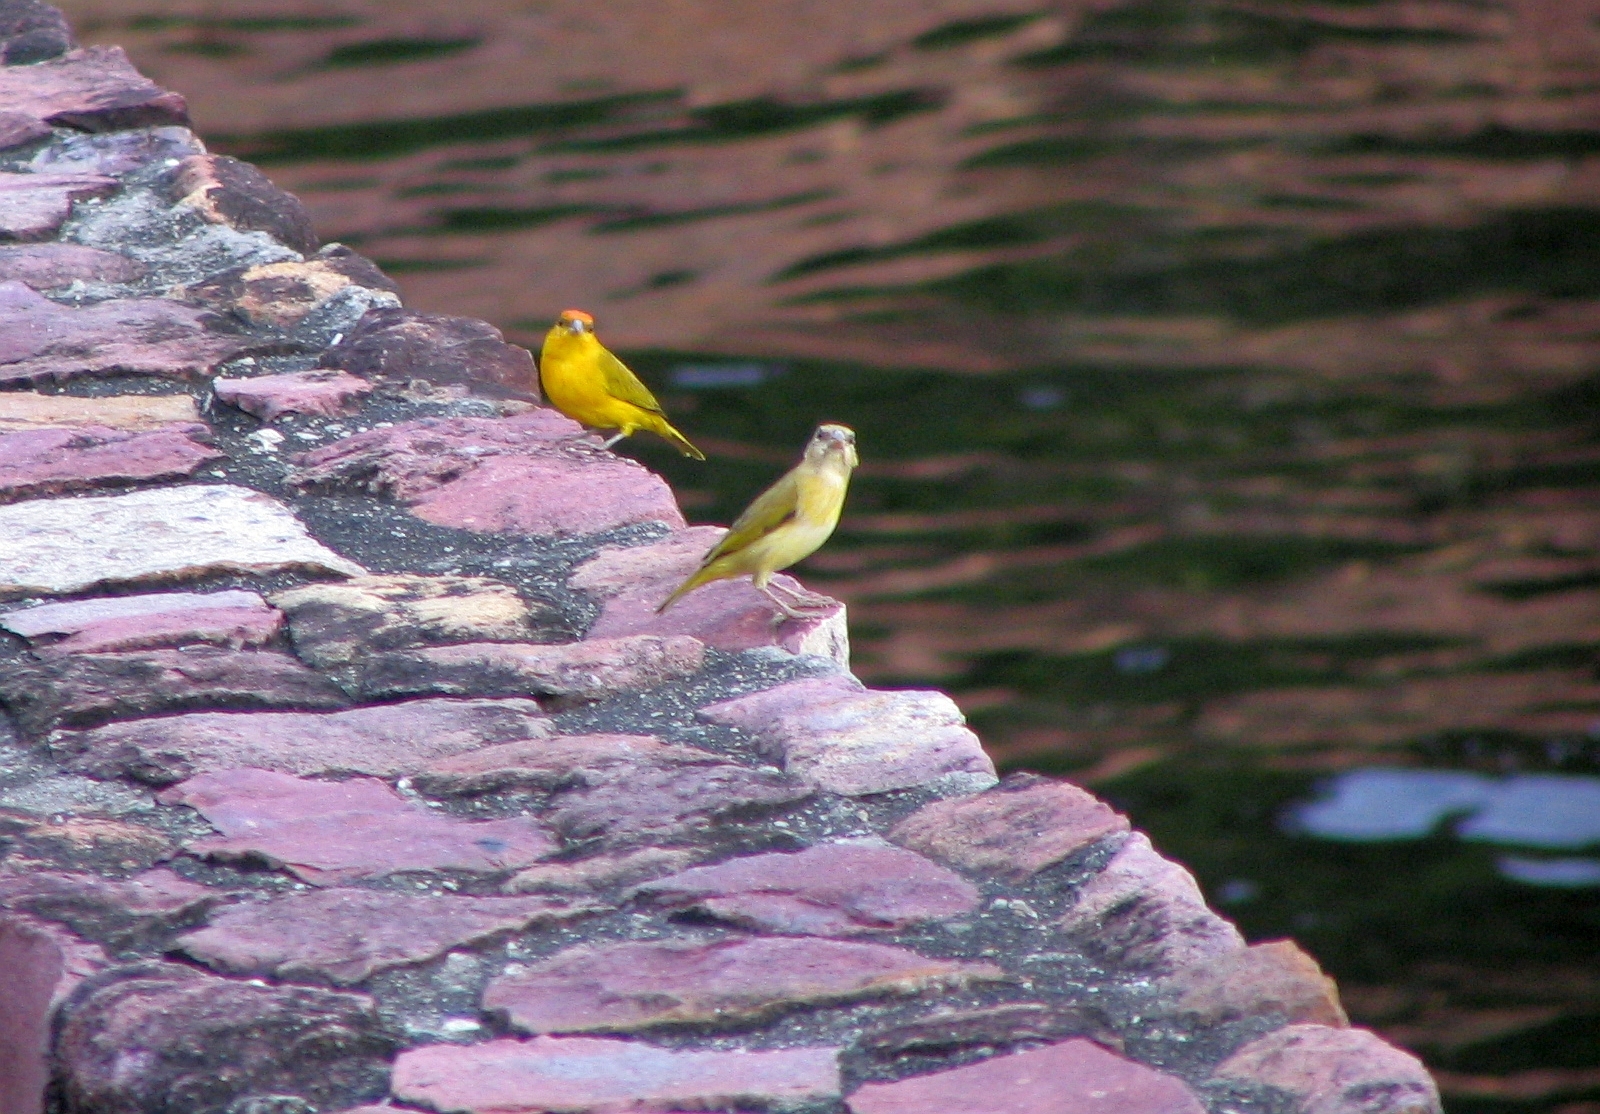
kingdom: Animalia
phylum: Chordata
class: Aves
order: Passeriformes
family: Thraupidae
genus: Sicalis
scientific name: Sicalis columbiana
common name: Orange-fronted yellow-finch
